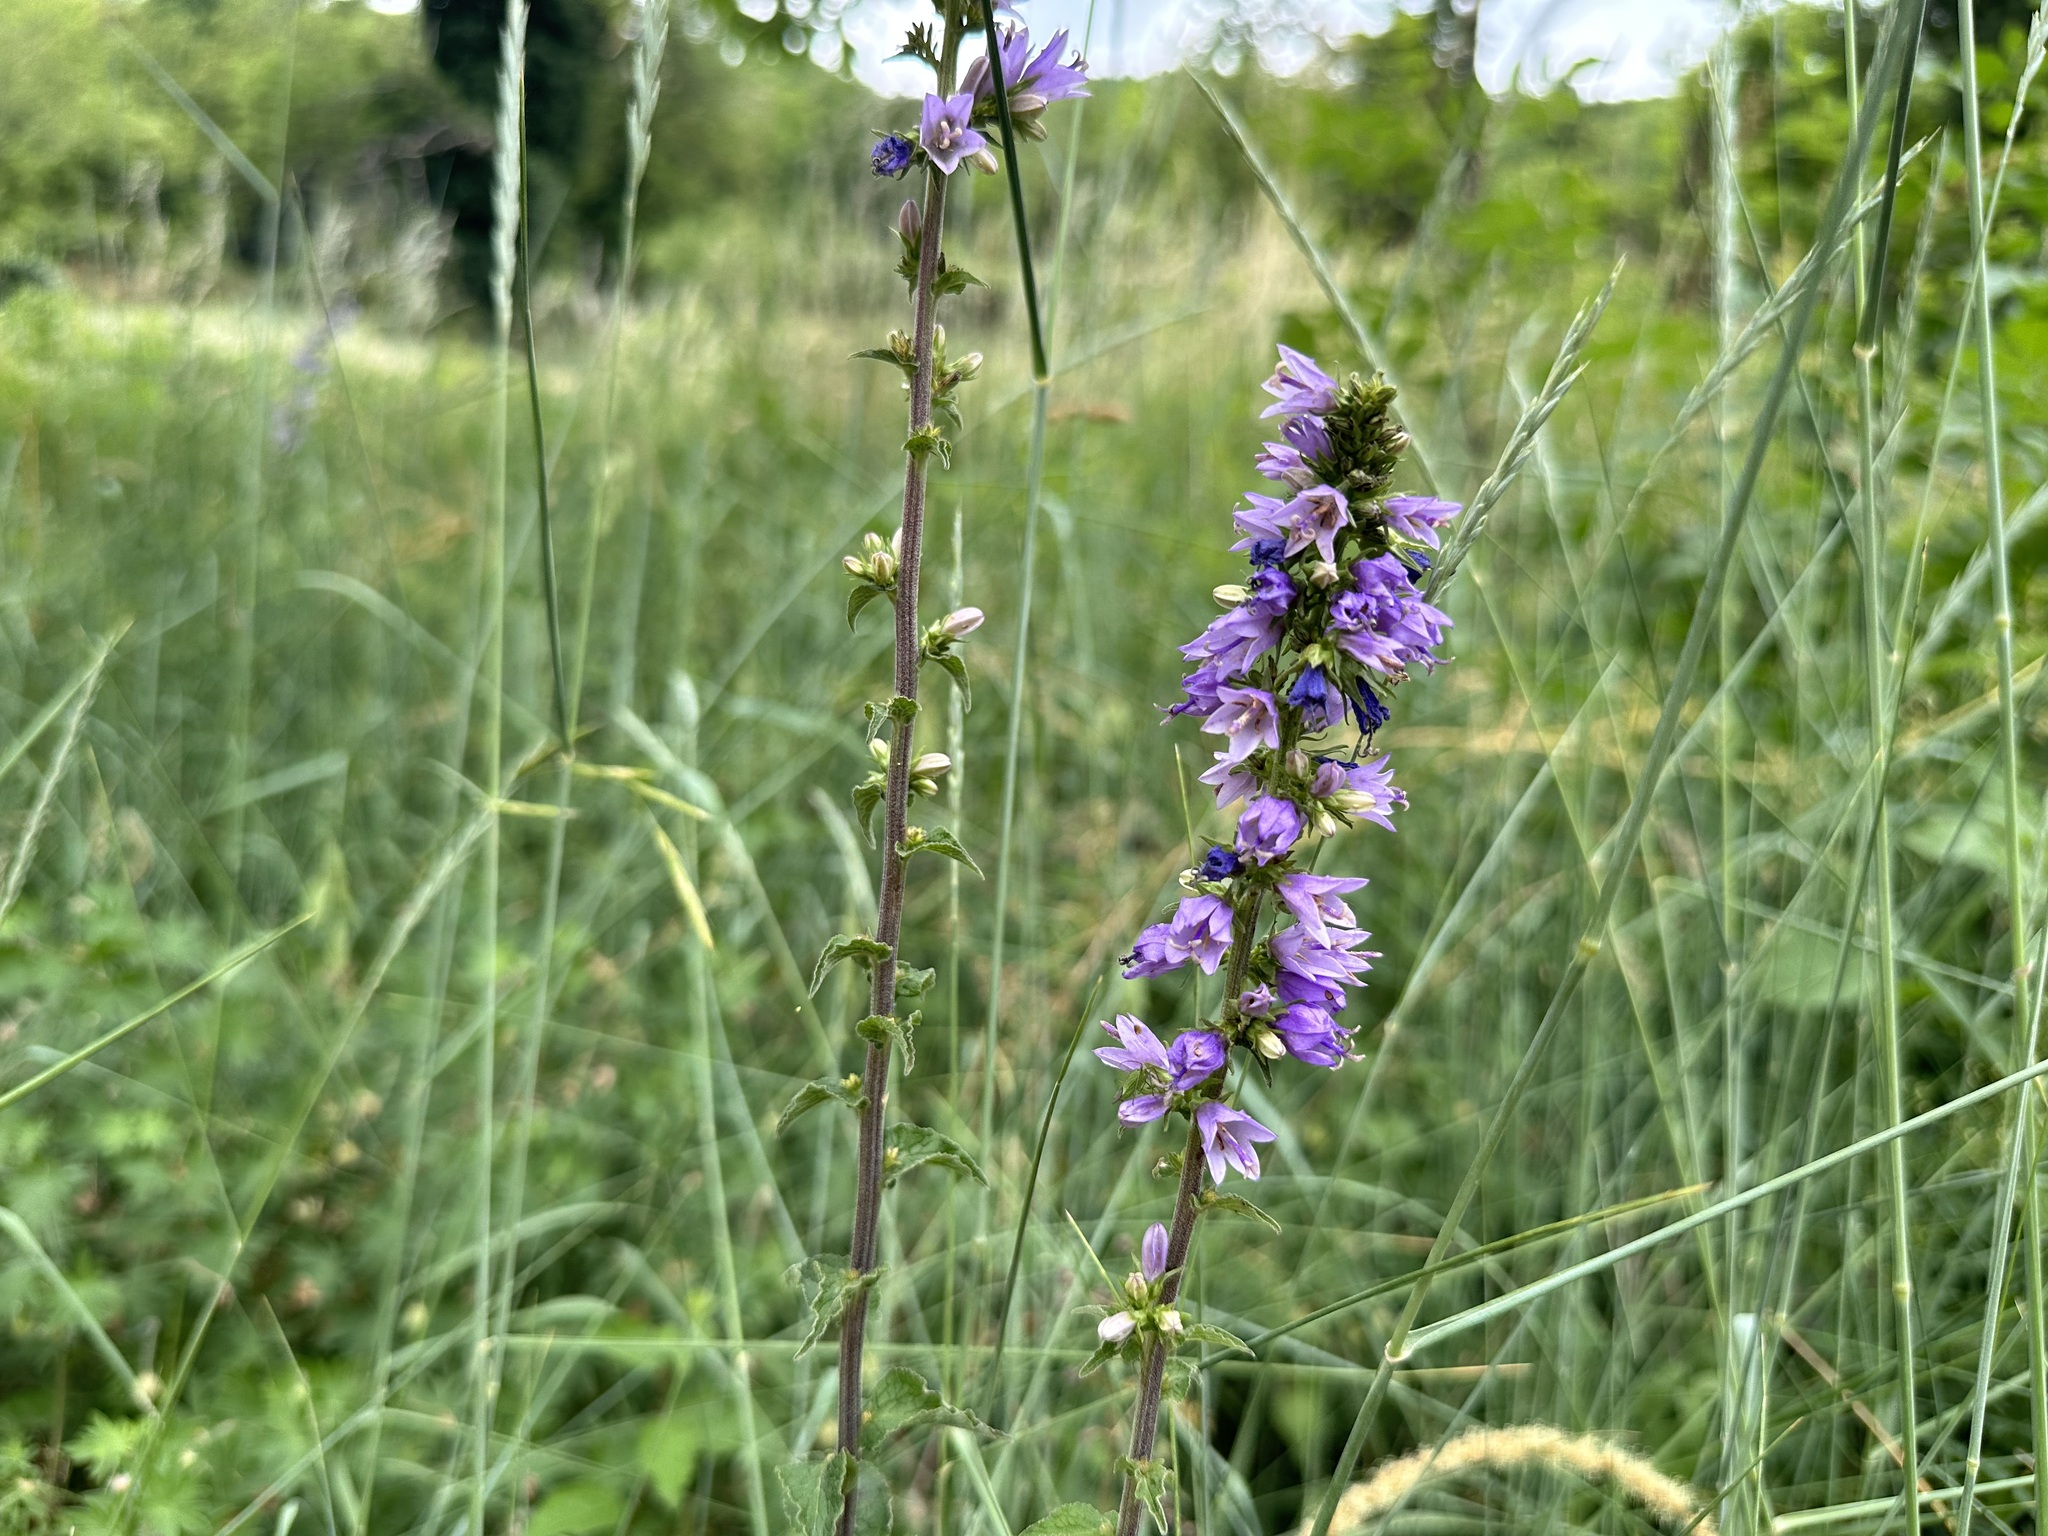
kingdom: Plantae
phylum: Tracheophyta
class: Magnoliopsida
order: Asterales
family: Campanulaceae
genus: Campanula
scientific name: Campanula bononiensis
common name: Pale bellflower
